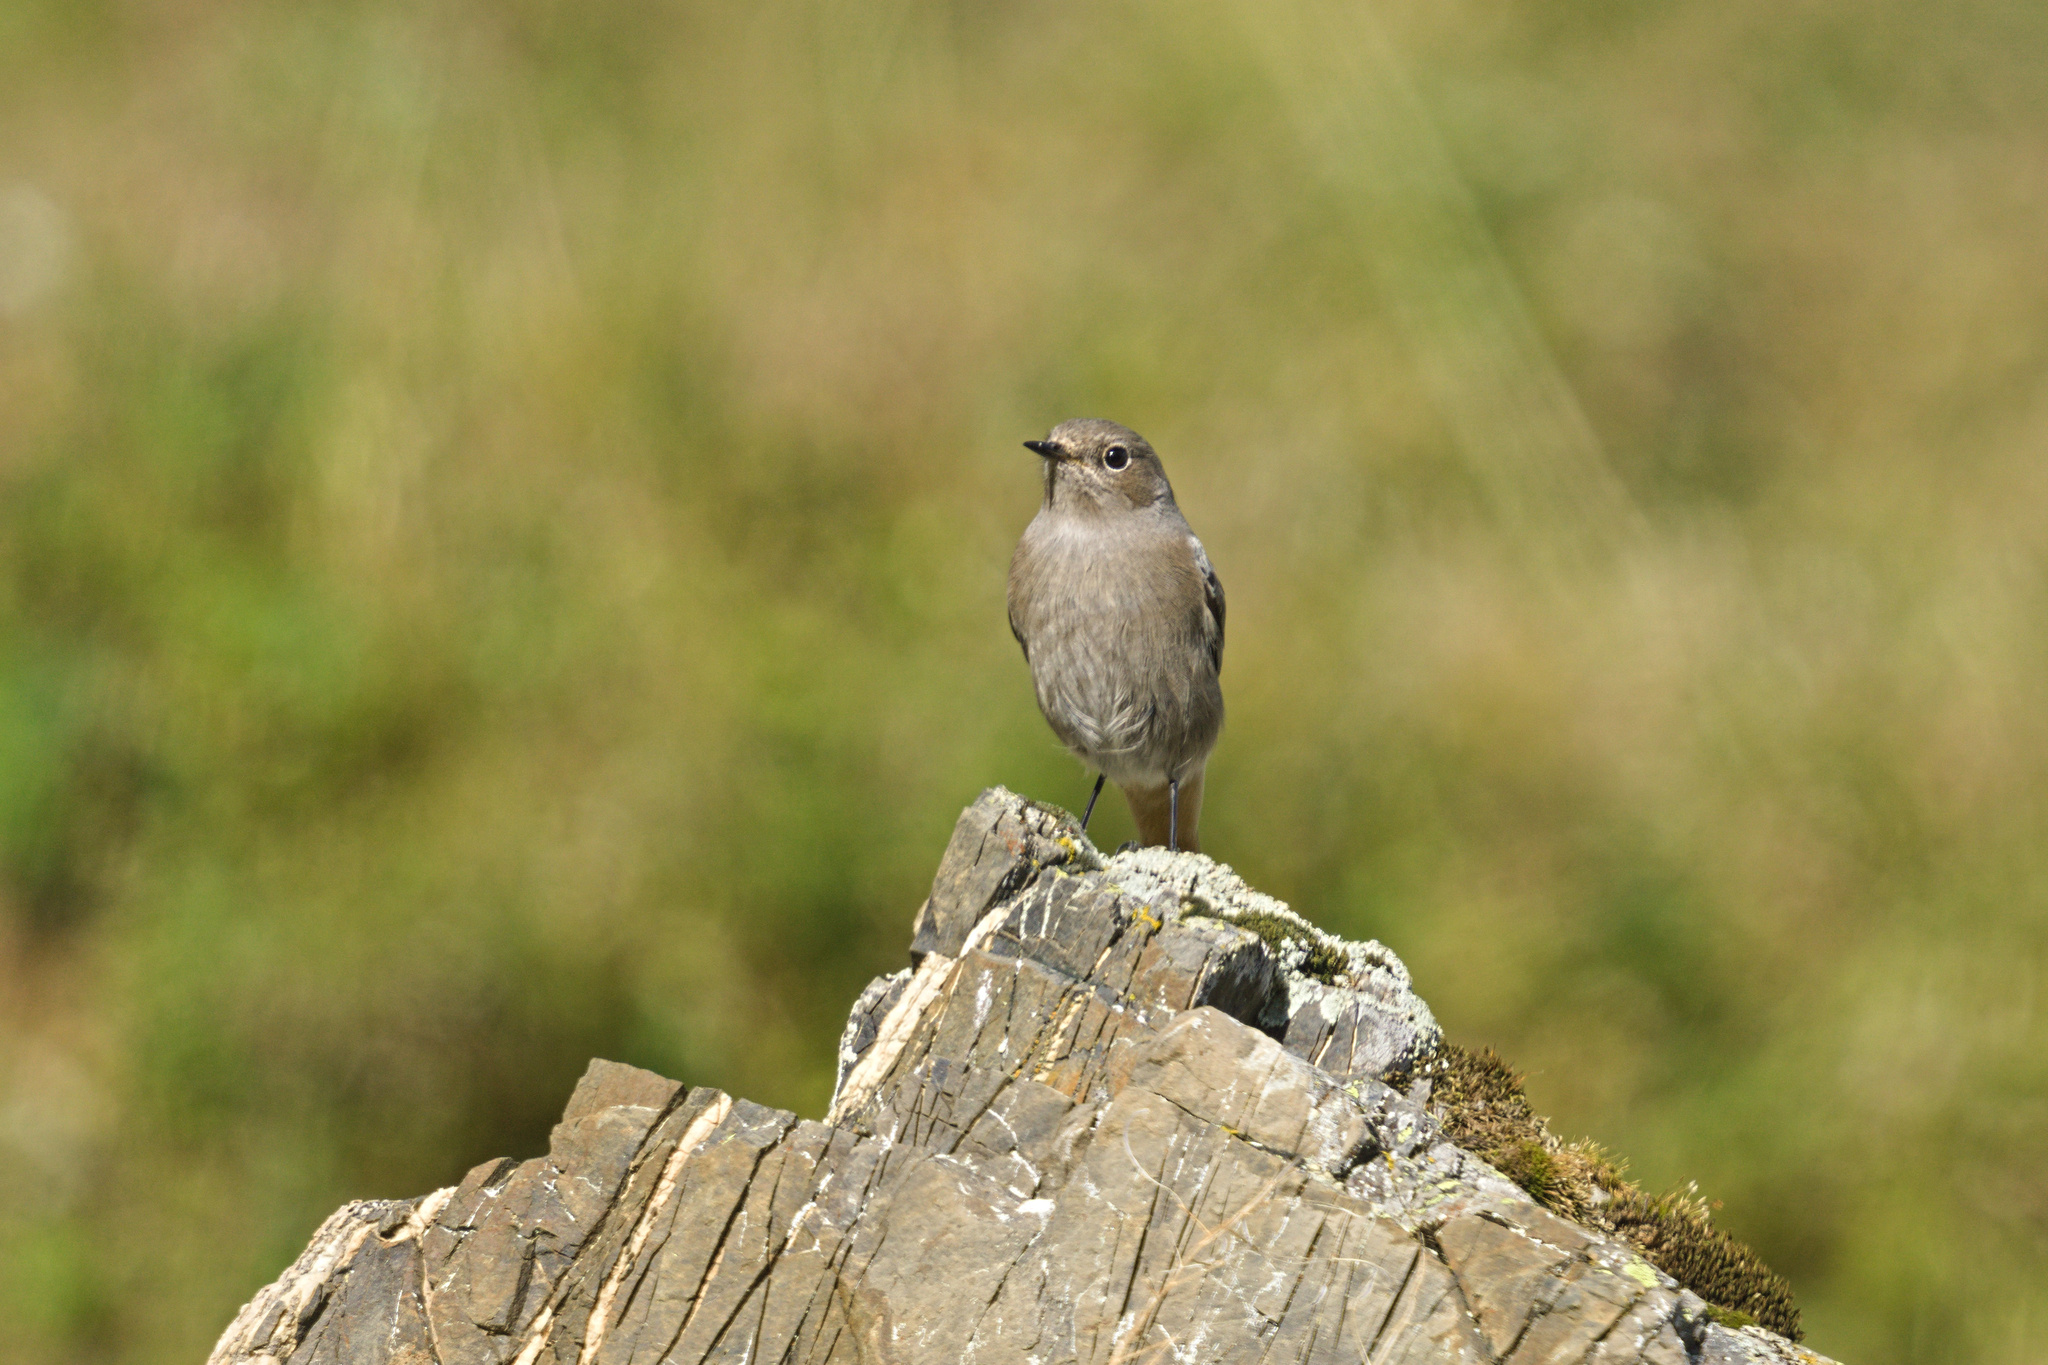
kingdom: Animalia
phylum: Chordata
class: Aves
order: Passeriformes
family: Muscicapidae
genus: Phoenicurus
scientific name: Phoenicurus ochruros
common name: Black redstart
